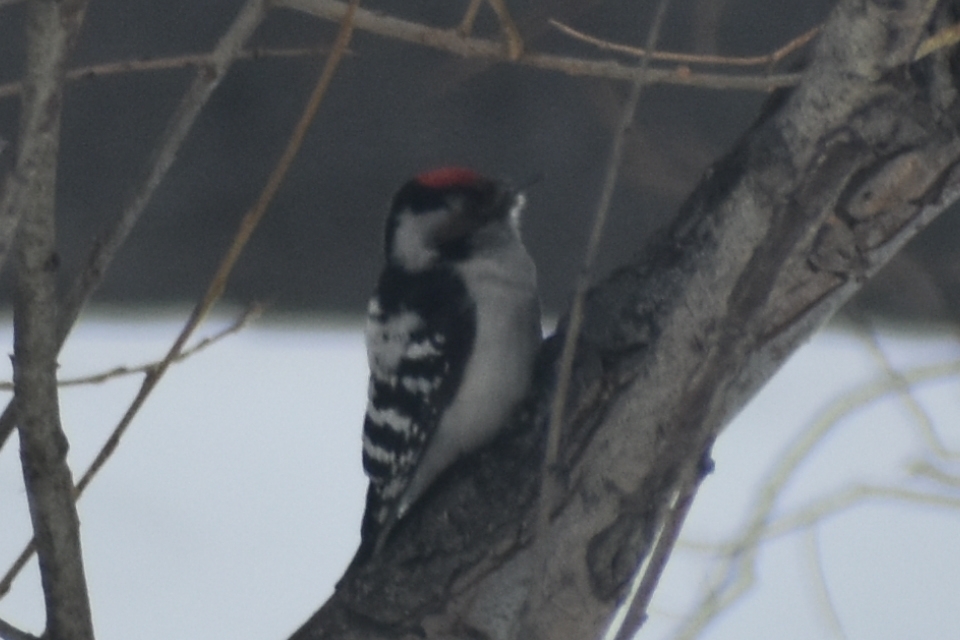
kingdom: Animalia
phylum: Chordata
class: Aves
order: Piciformes
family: Picidae
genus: Dryobates
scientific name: Dryobates minor
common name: Lesser spotted woodpecker
